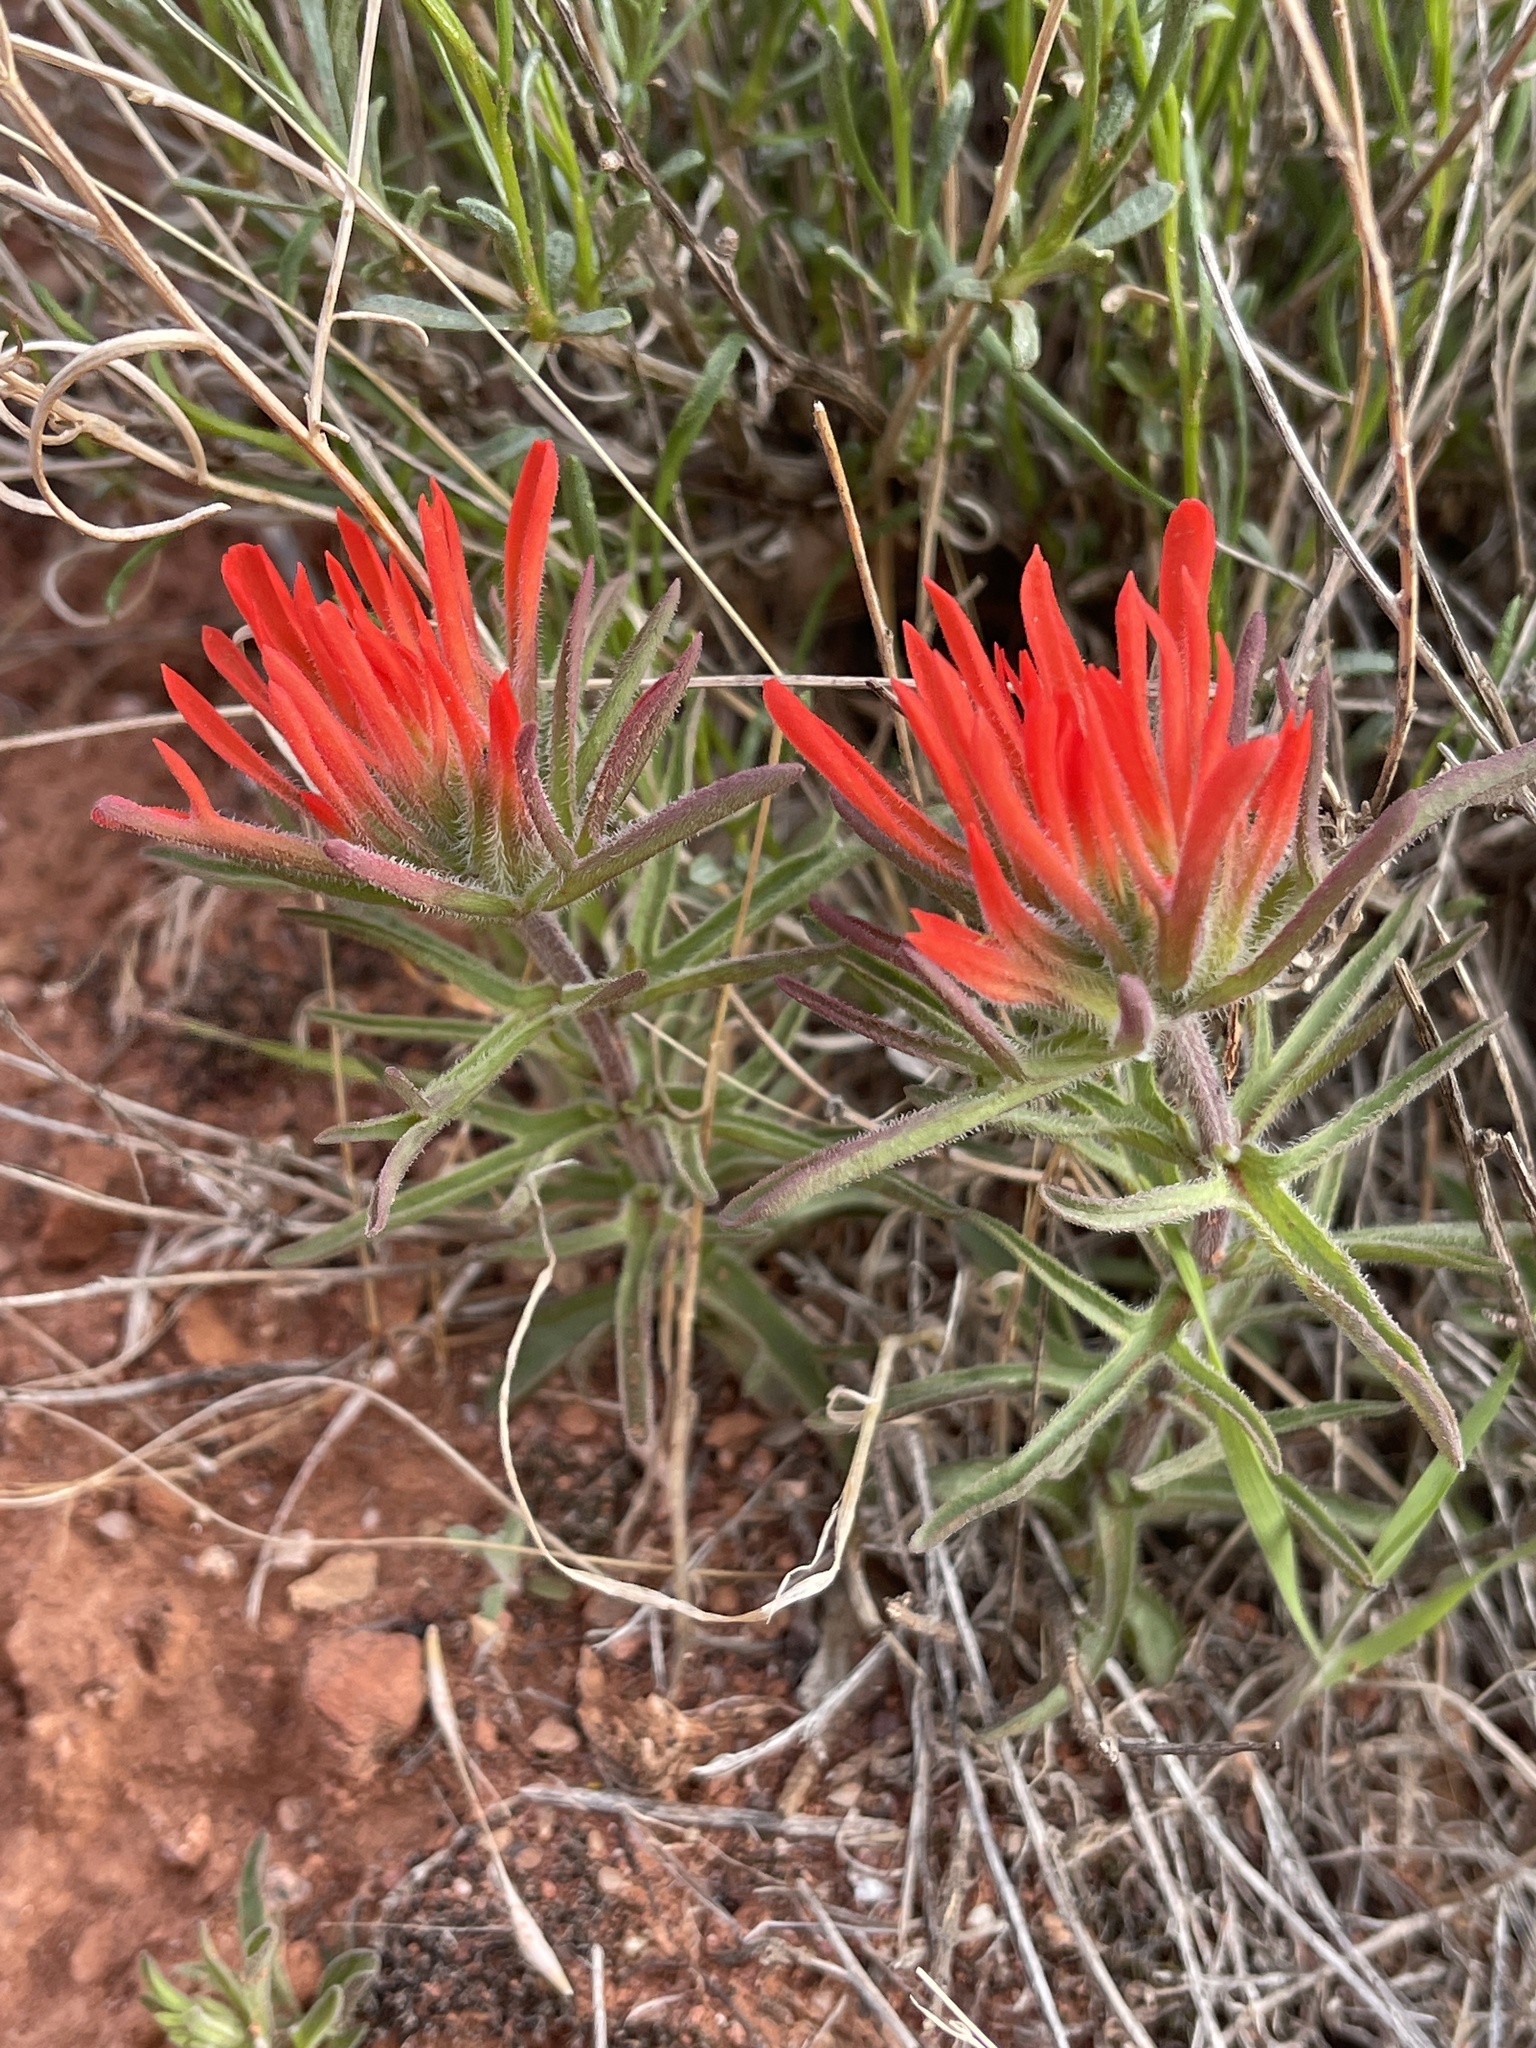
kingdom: Plantae
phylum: Tracheophyta
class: Magnoliopsida
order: Lamiales
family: Orobanchaceae
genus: Castilleja
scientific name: Castilleja chromosa
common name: Desert paintbrush
